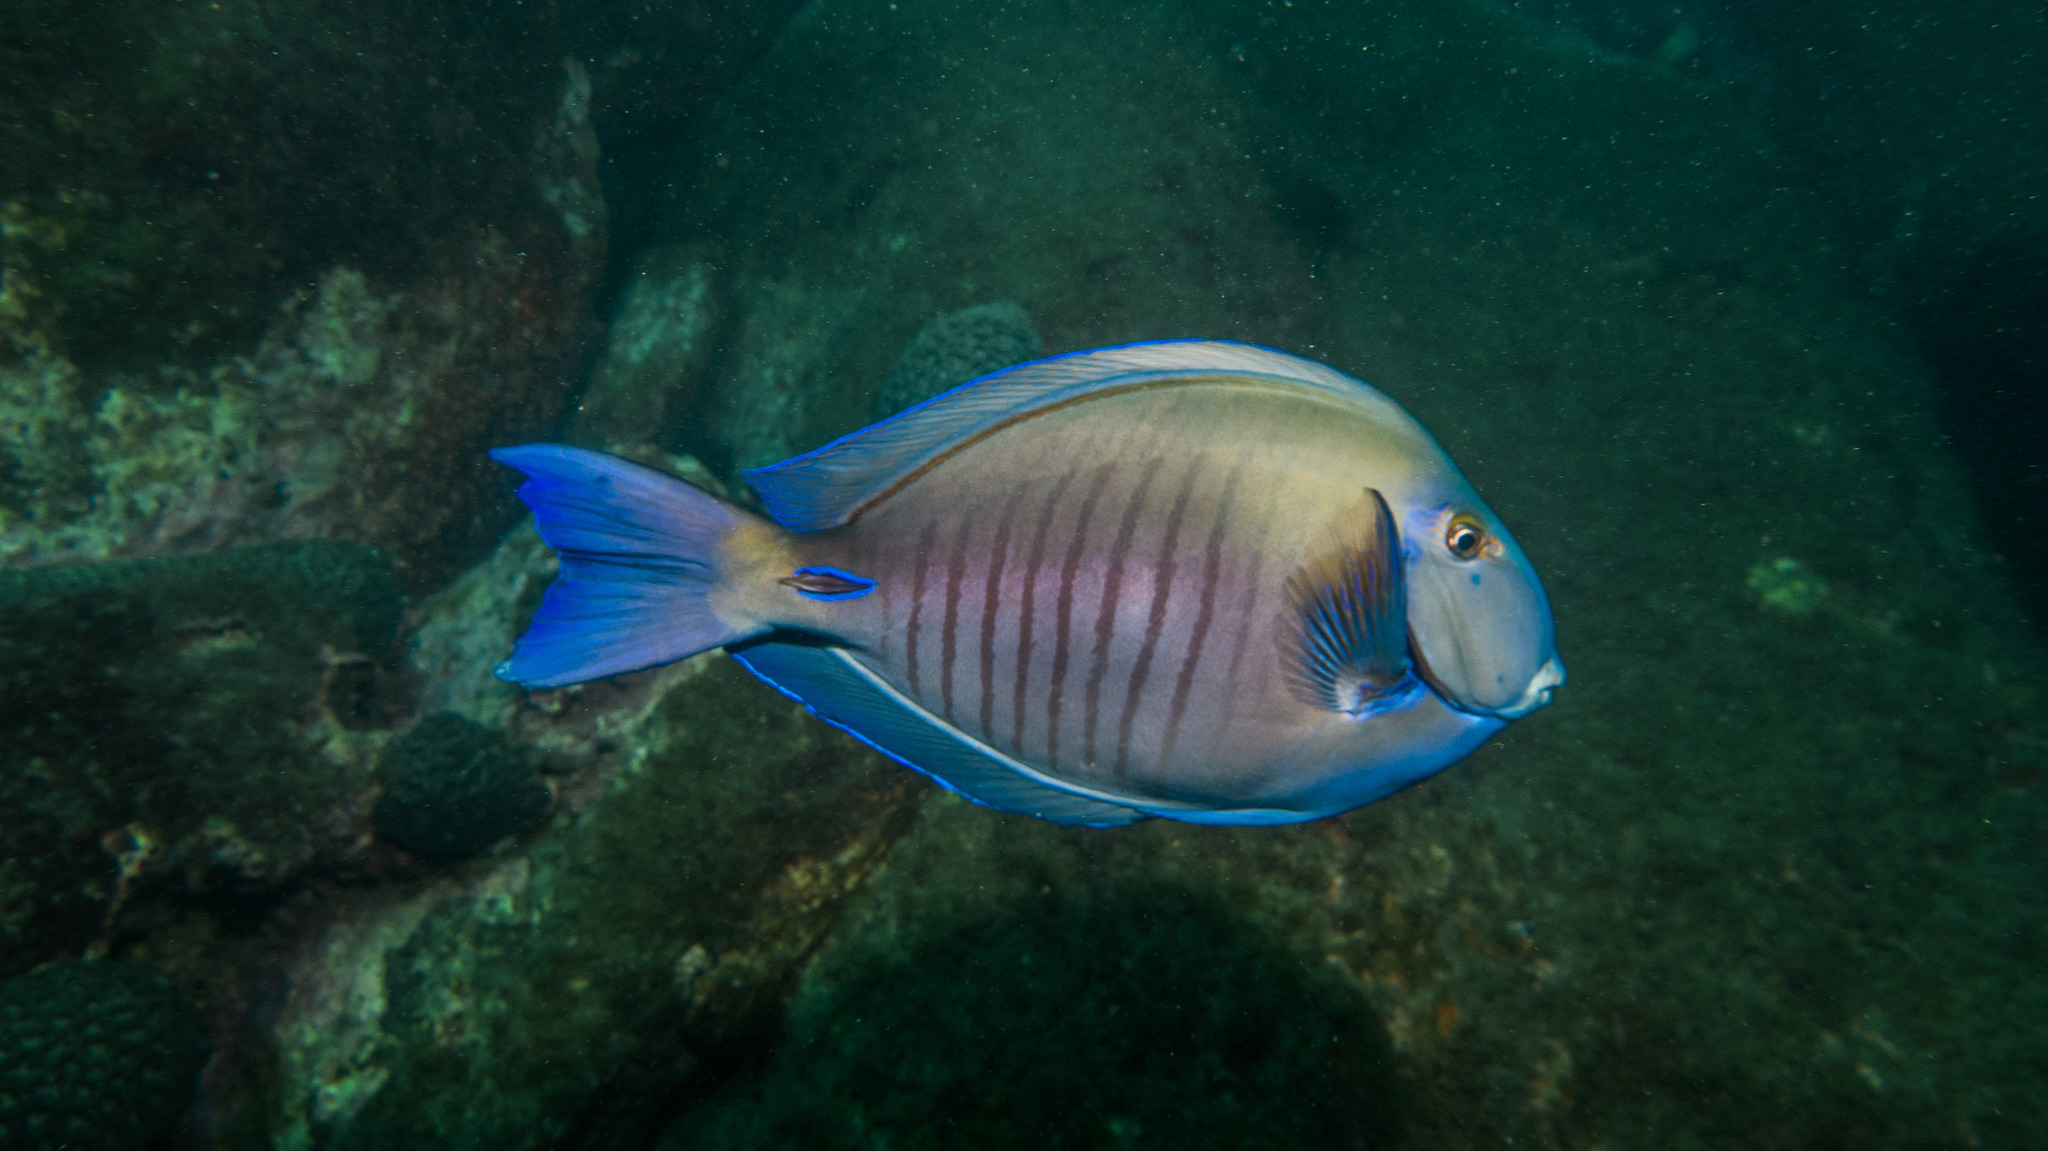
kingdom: Animalia
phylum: Chordata
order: Perciformes
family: Acanthuridae
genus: Acanthurus
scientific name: Acanthurus chirurgus
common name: Doctorfish
